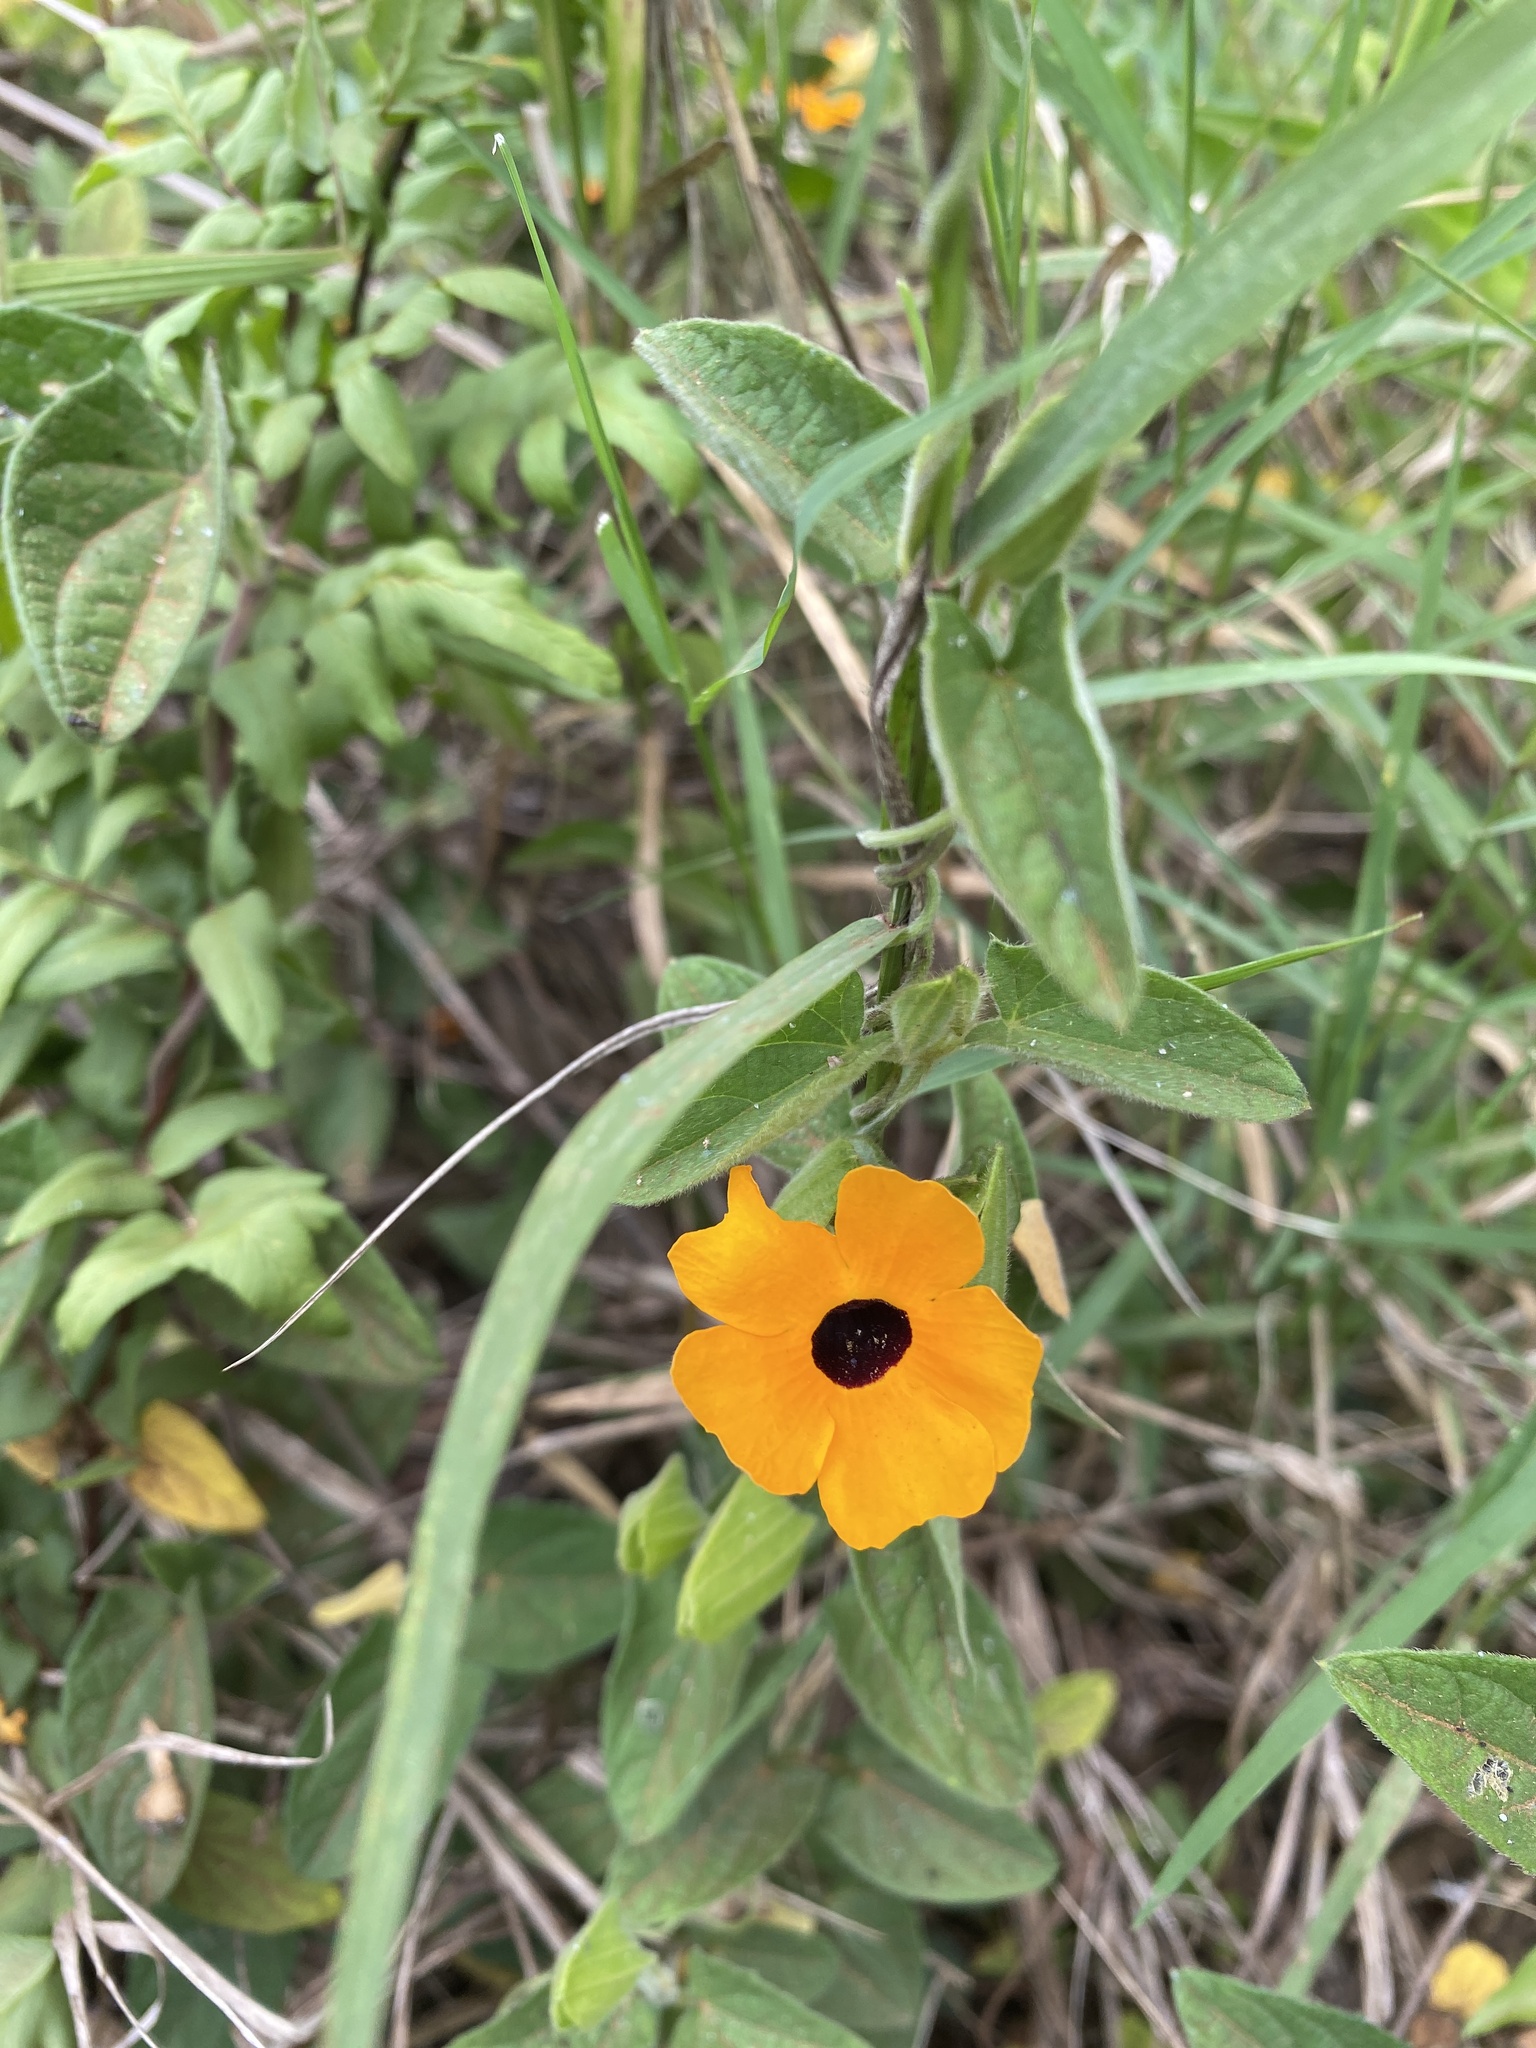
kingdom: Plantae
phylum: Tracheophyta
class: Magnoliopsida
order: Lamiales
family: Acanthaceae
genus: Thunbergia
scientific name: Thunbergia alata
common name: Blackeyed susan vine
